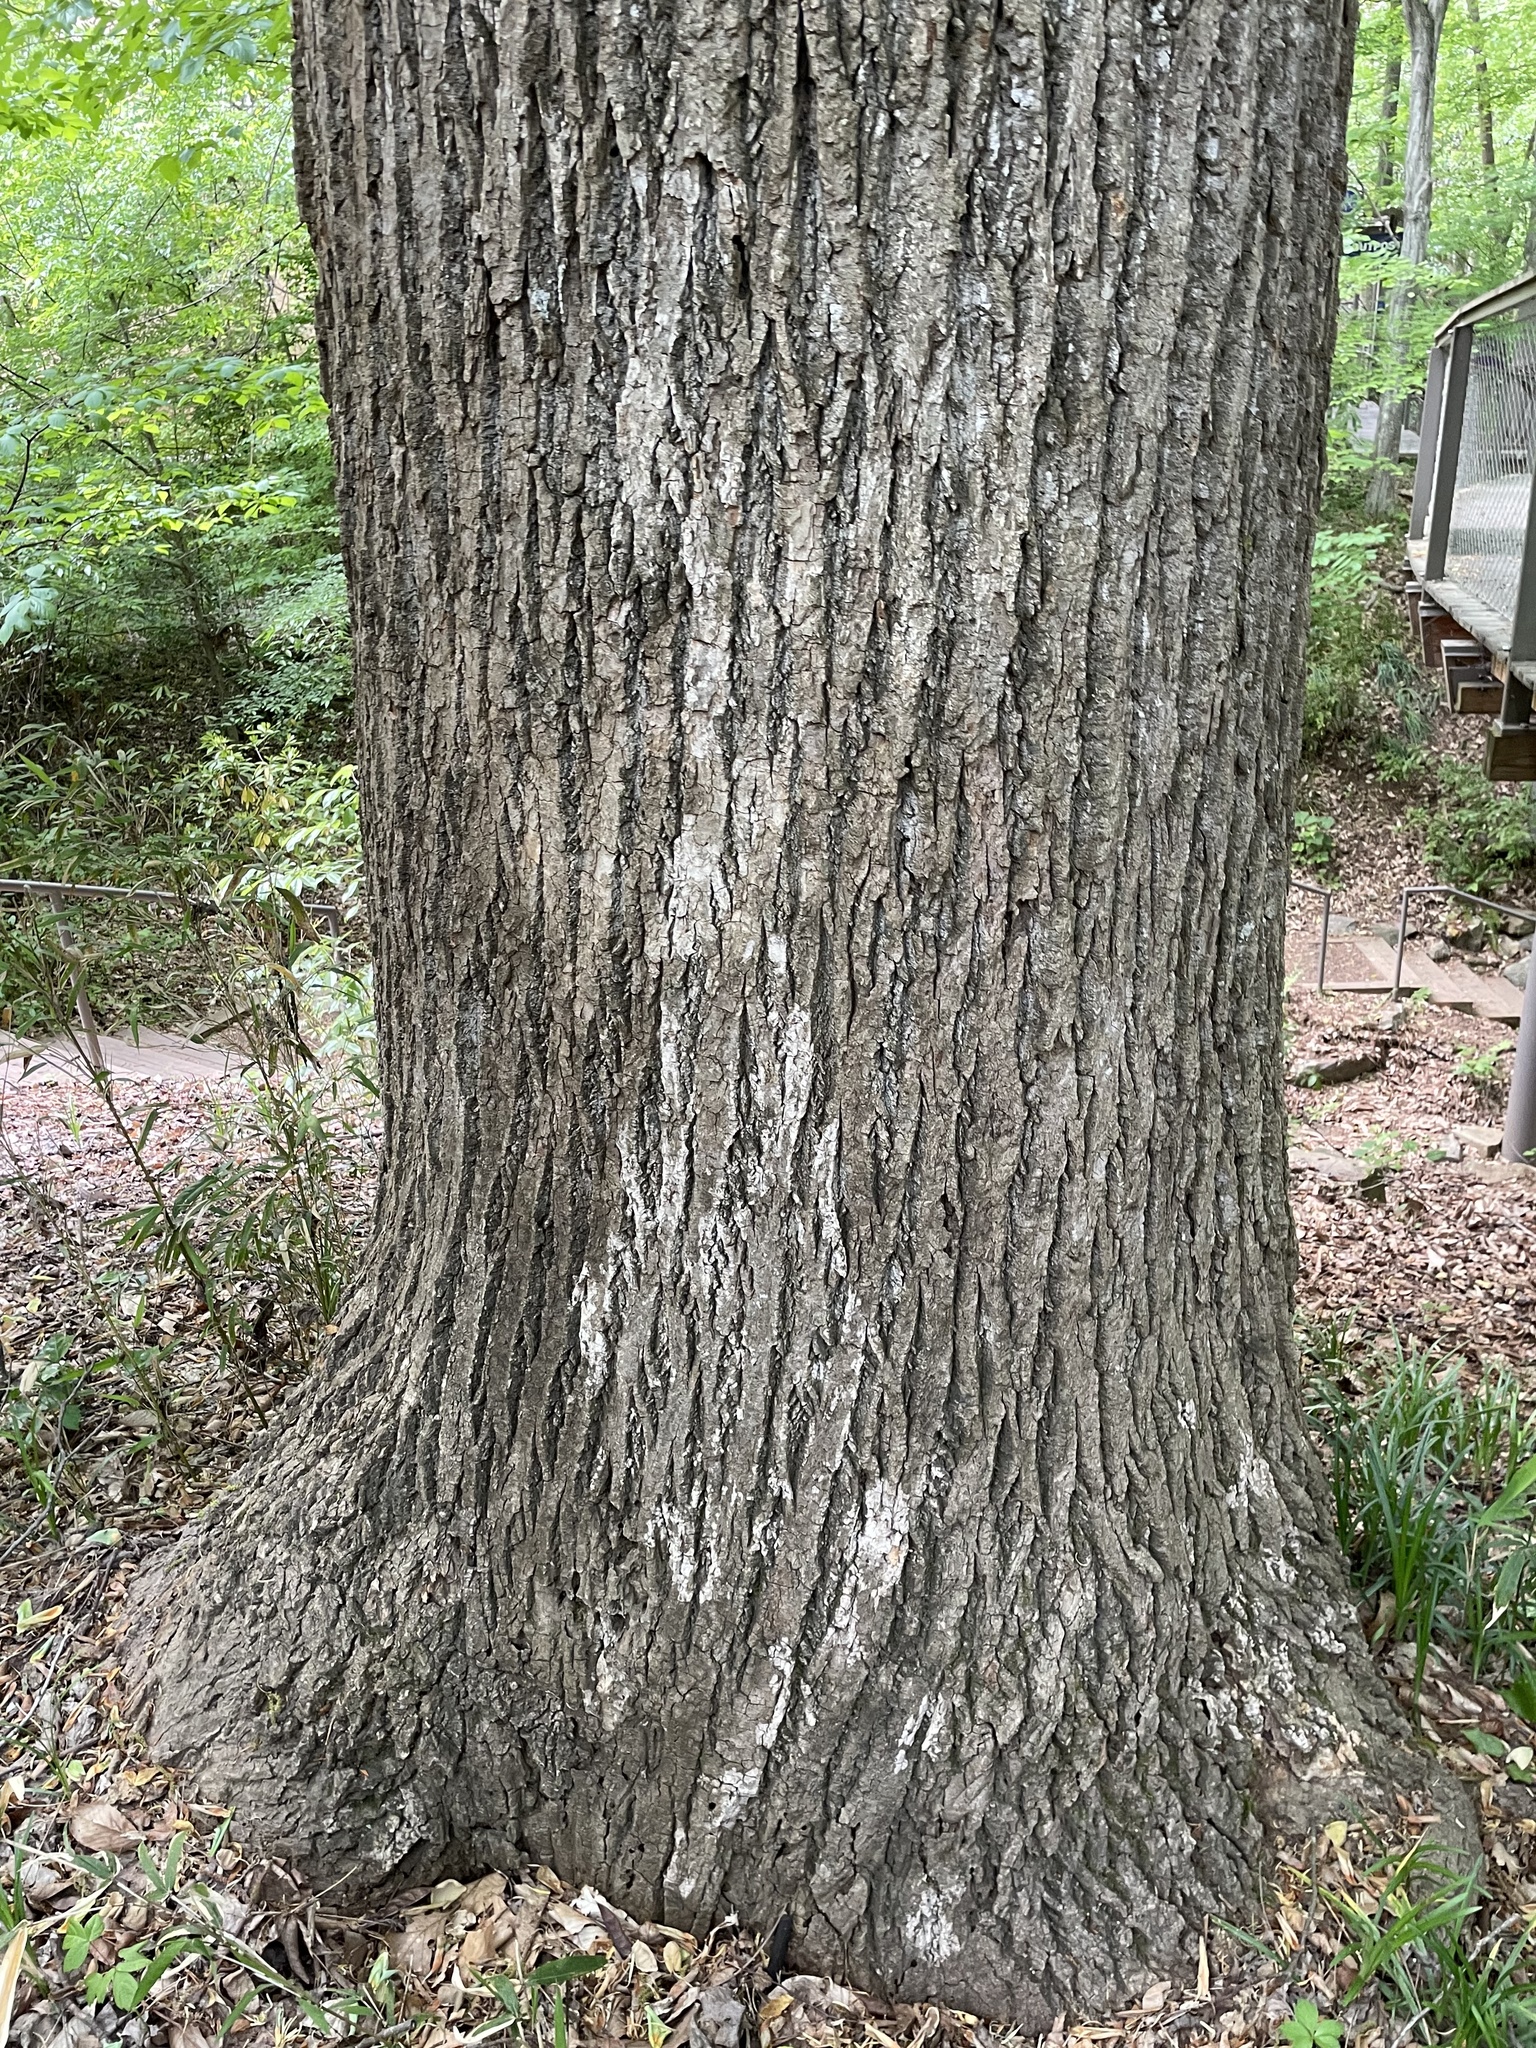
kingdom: Plantae
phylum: Tracheophyta
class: Magnoliopsida
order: Magnoliales
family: Magnoliaceae
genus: Liriodendron
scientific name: Liriodendron tulipifera
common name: Tulip tree
